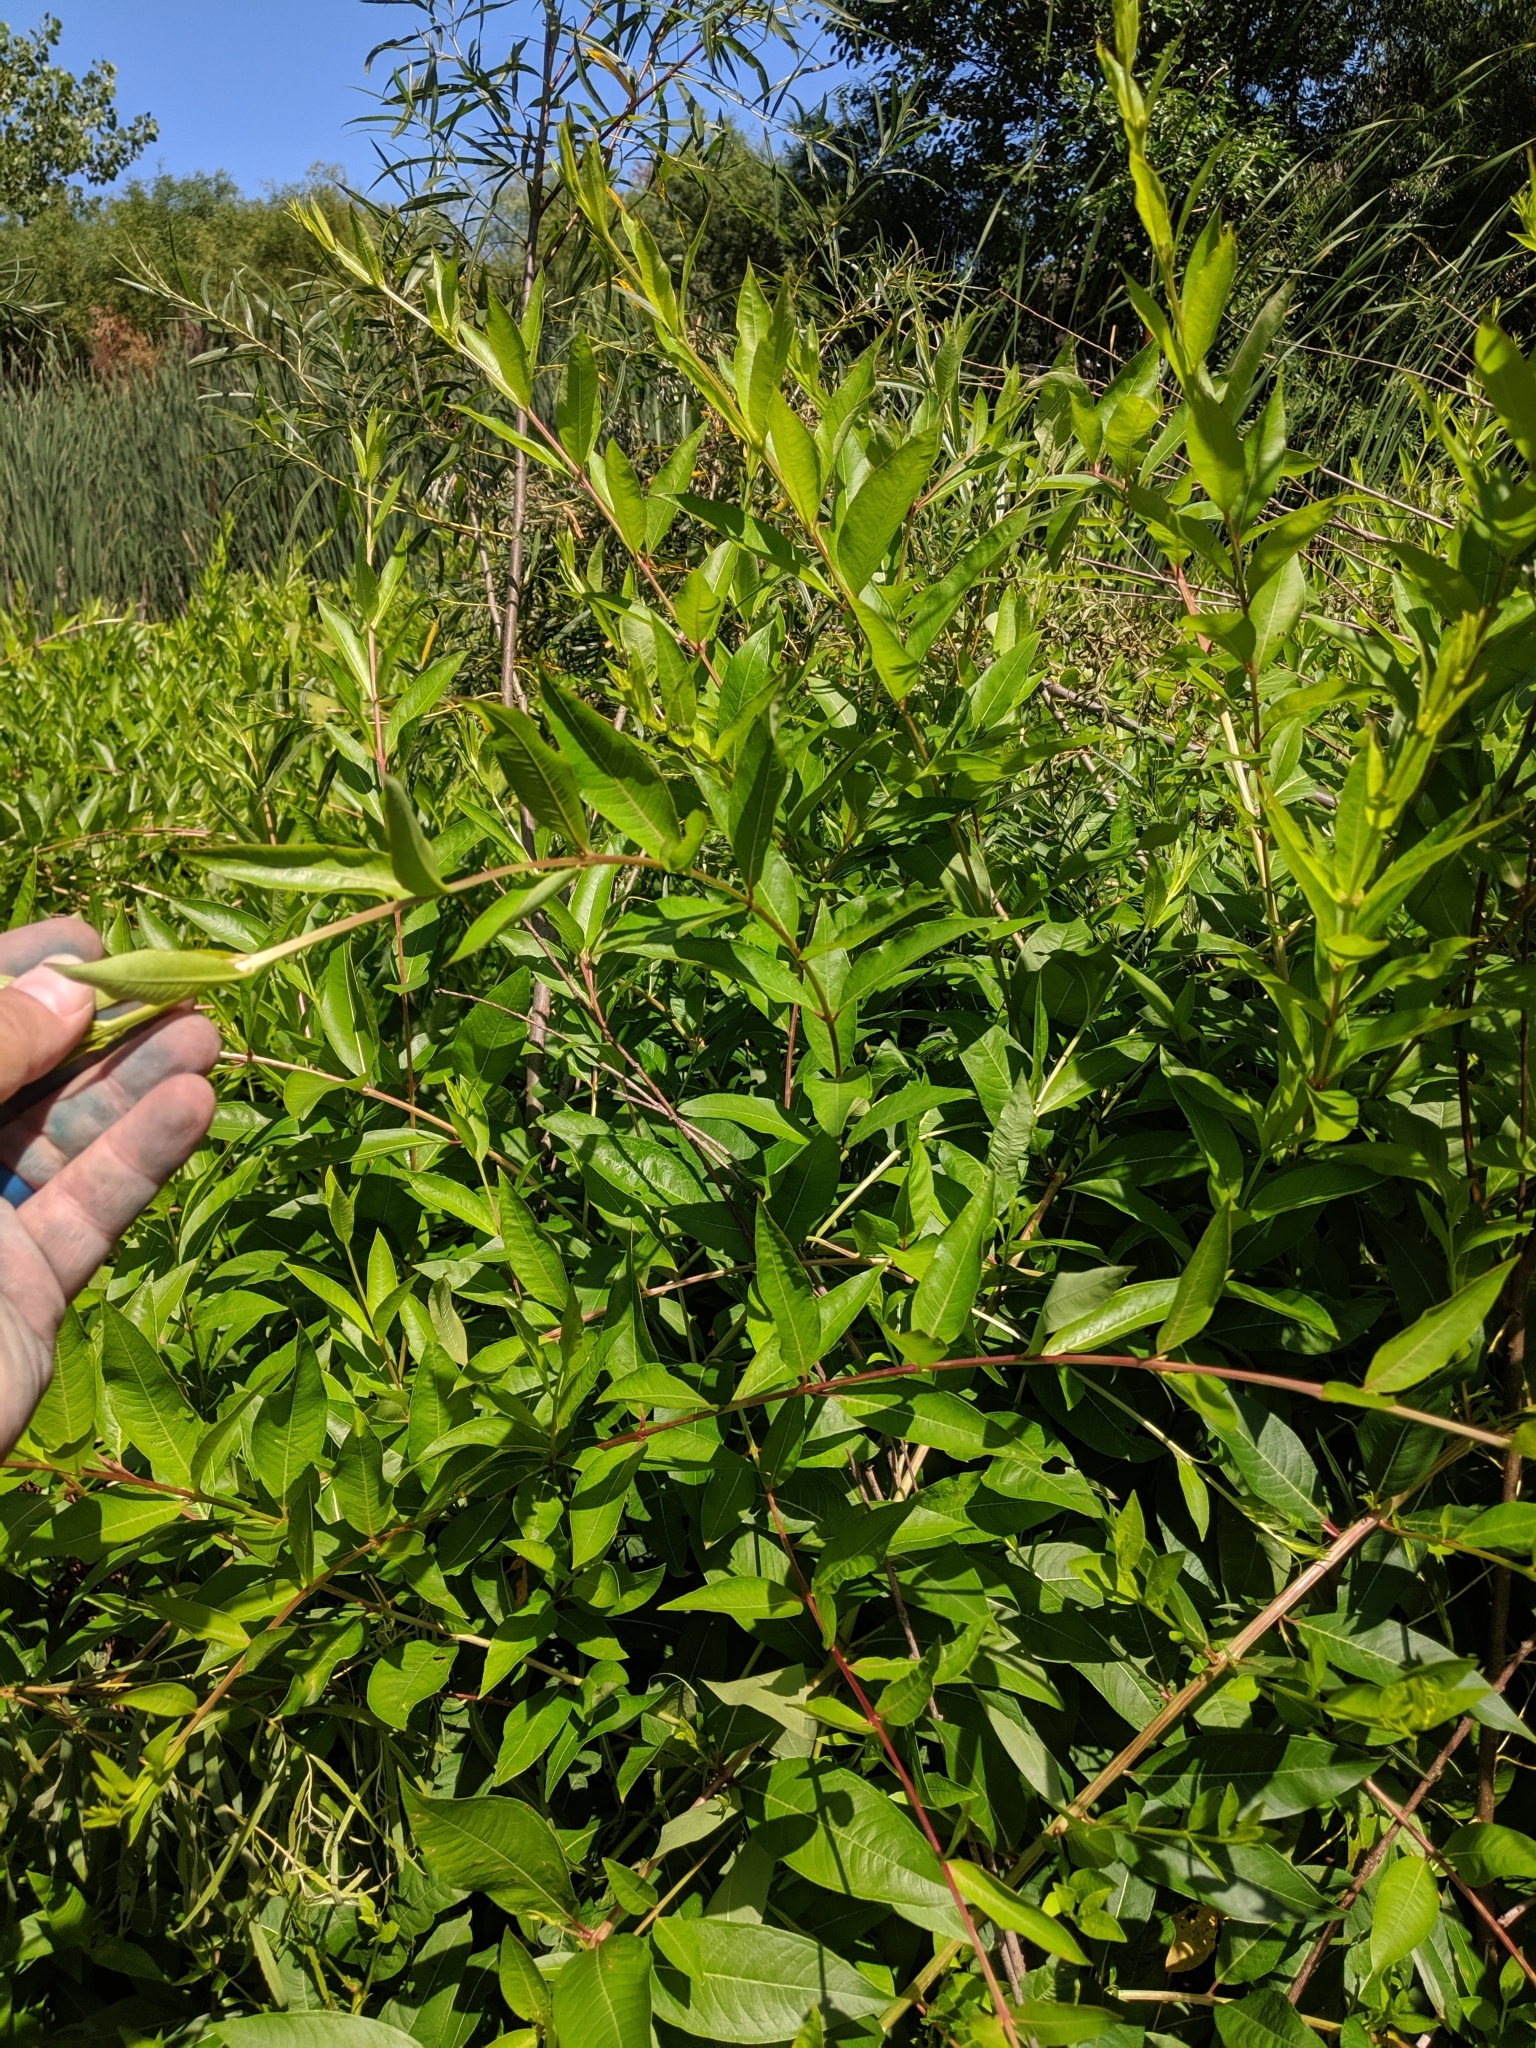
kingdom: Plantae
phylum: Tracheophyta
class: Magnoliopsida
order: Myrtales
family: Lythraceae
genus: Decodon
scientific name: Decodon verticillatus
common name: Hairy swamp loosestrife
